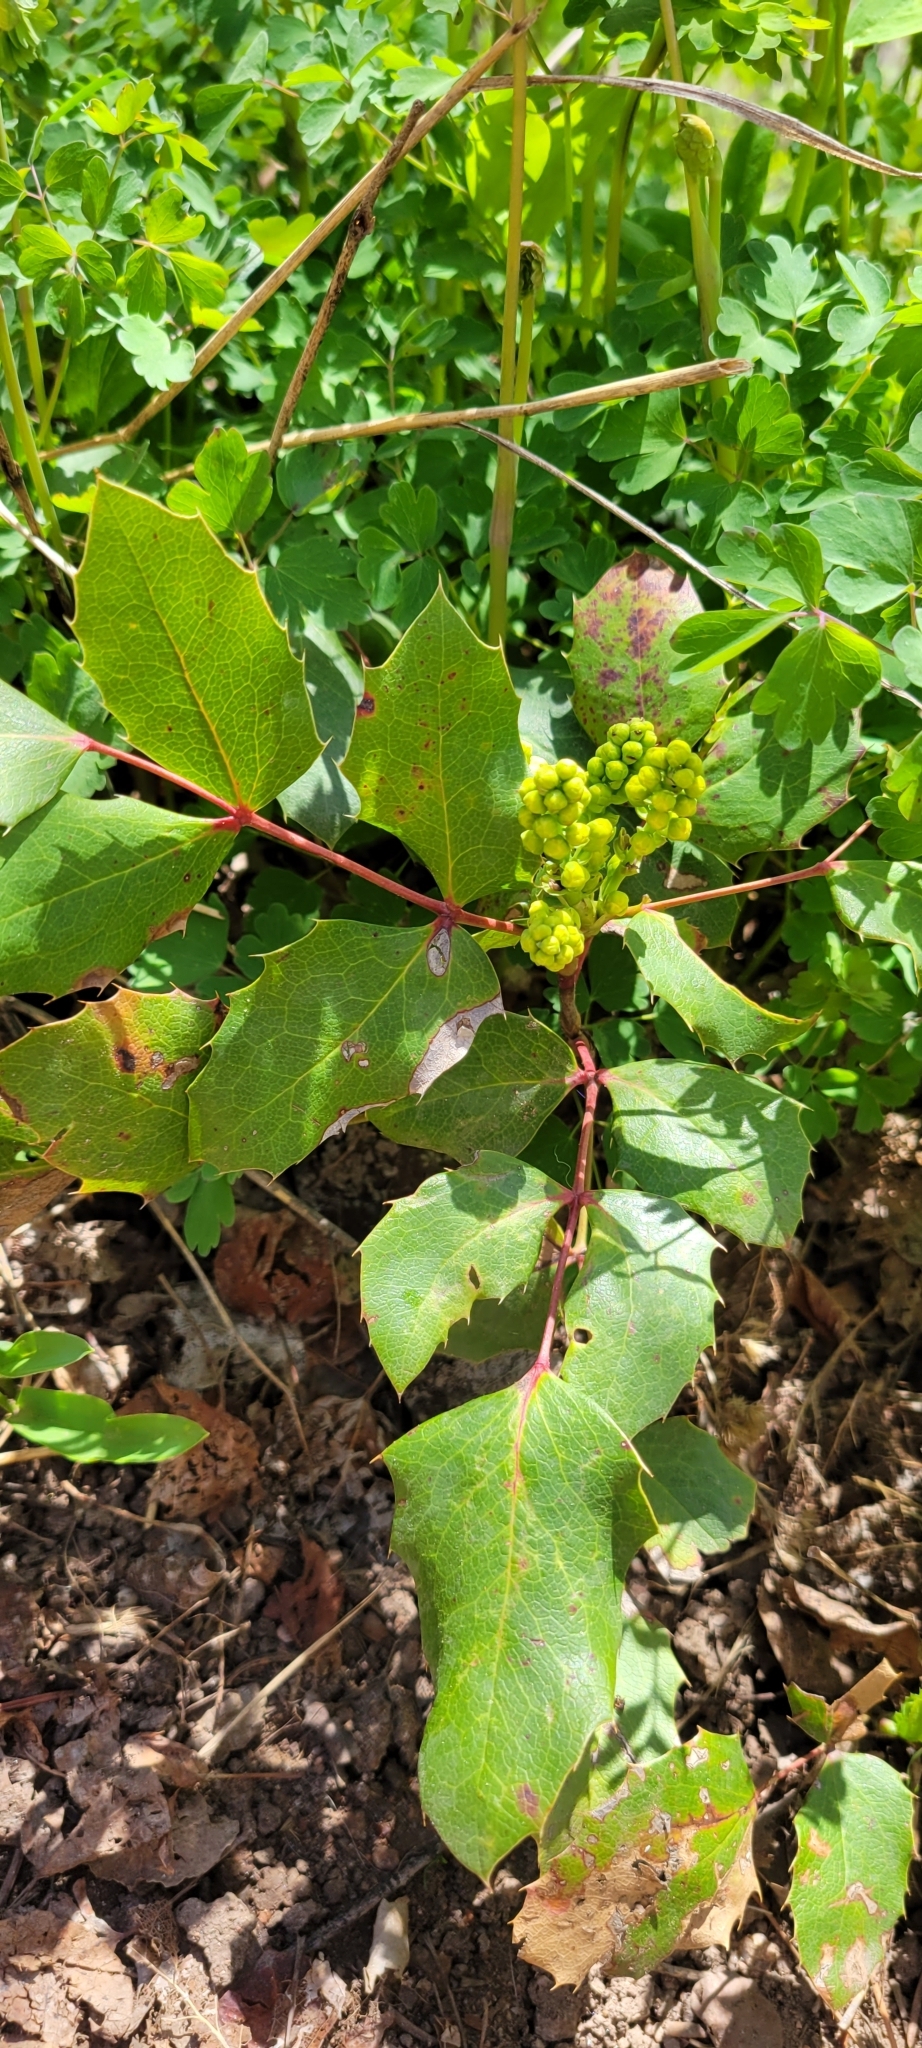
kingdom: Plantae
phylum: Tracheophyta
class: Magnoliopsida
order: Ranunculales
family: Berberidaceae
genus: Mahonia
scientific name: Mahonia repens
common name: Creeping oregon-grape
